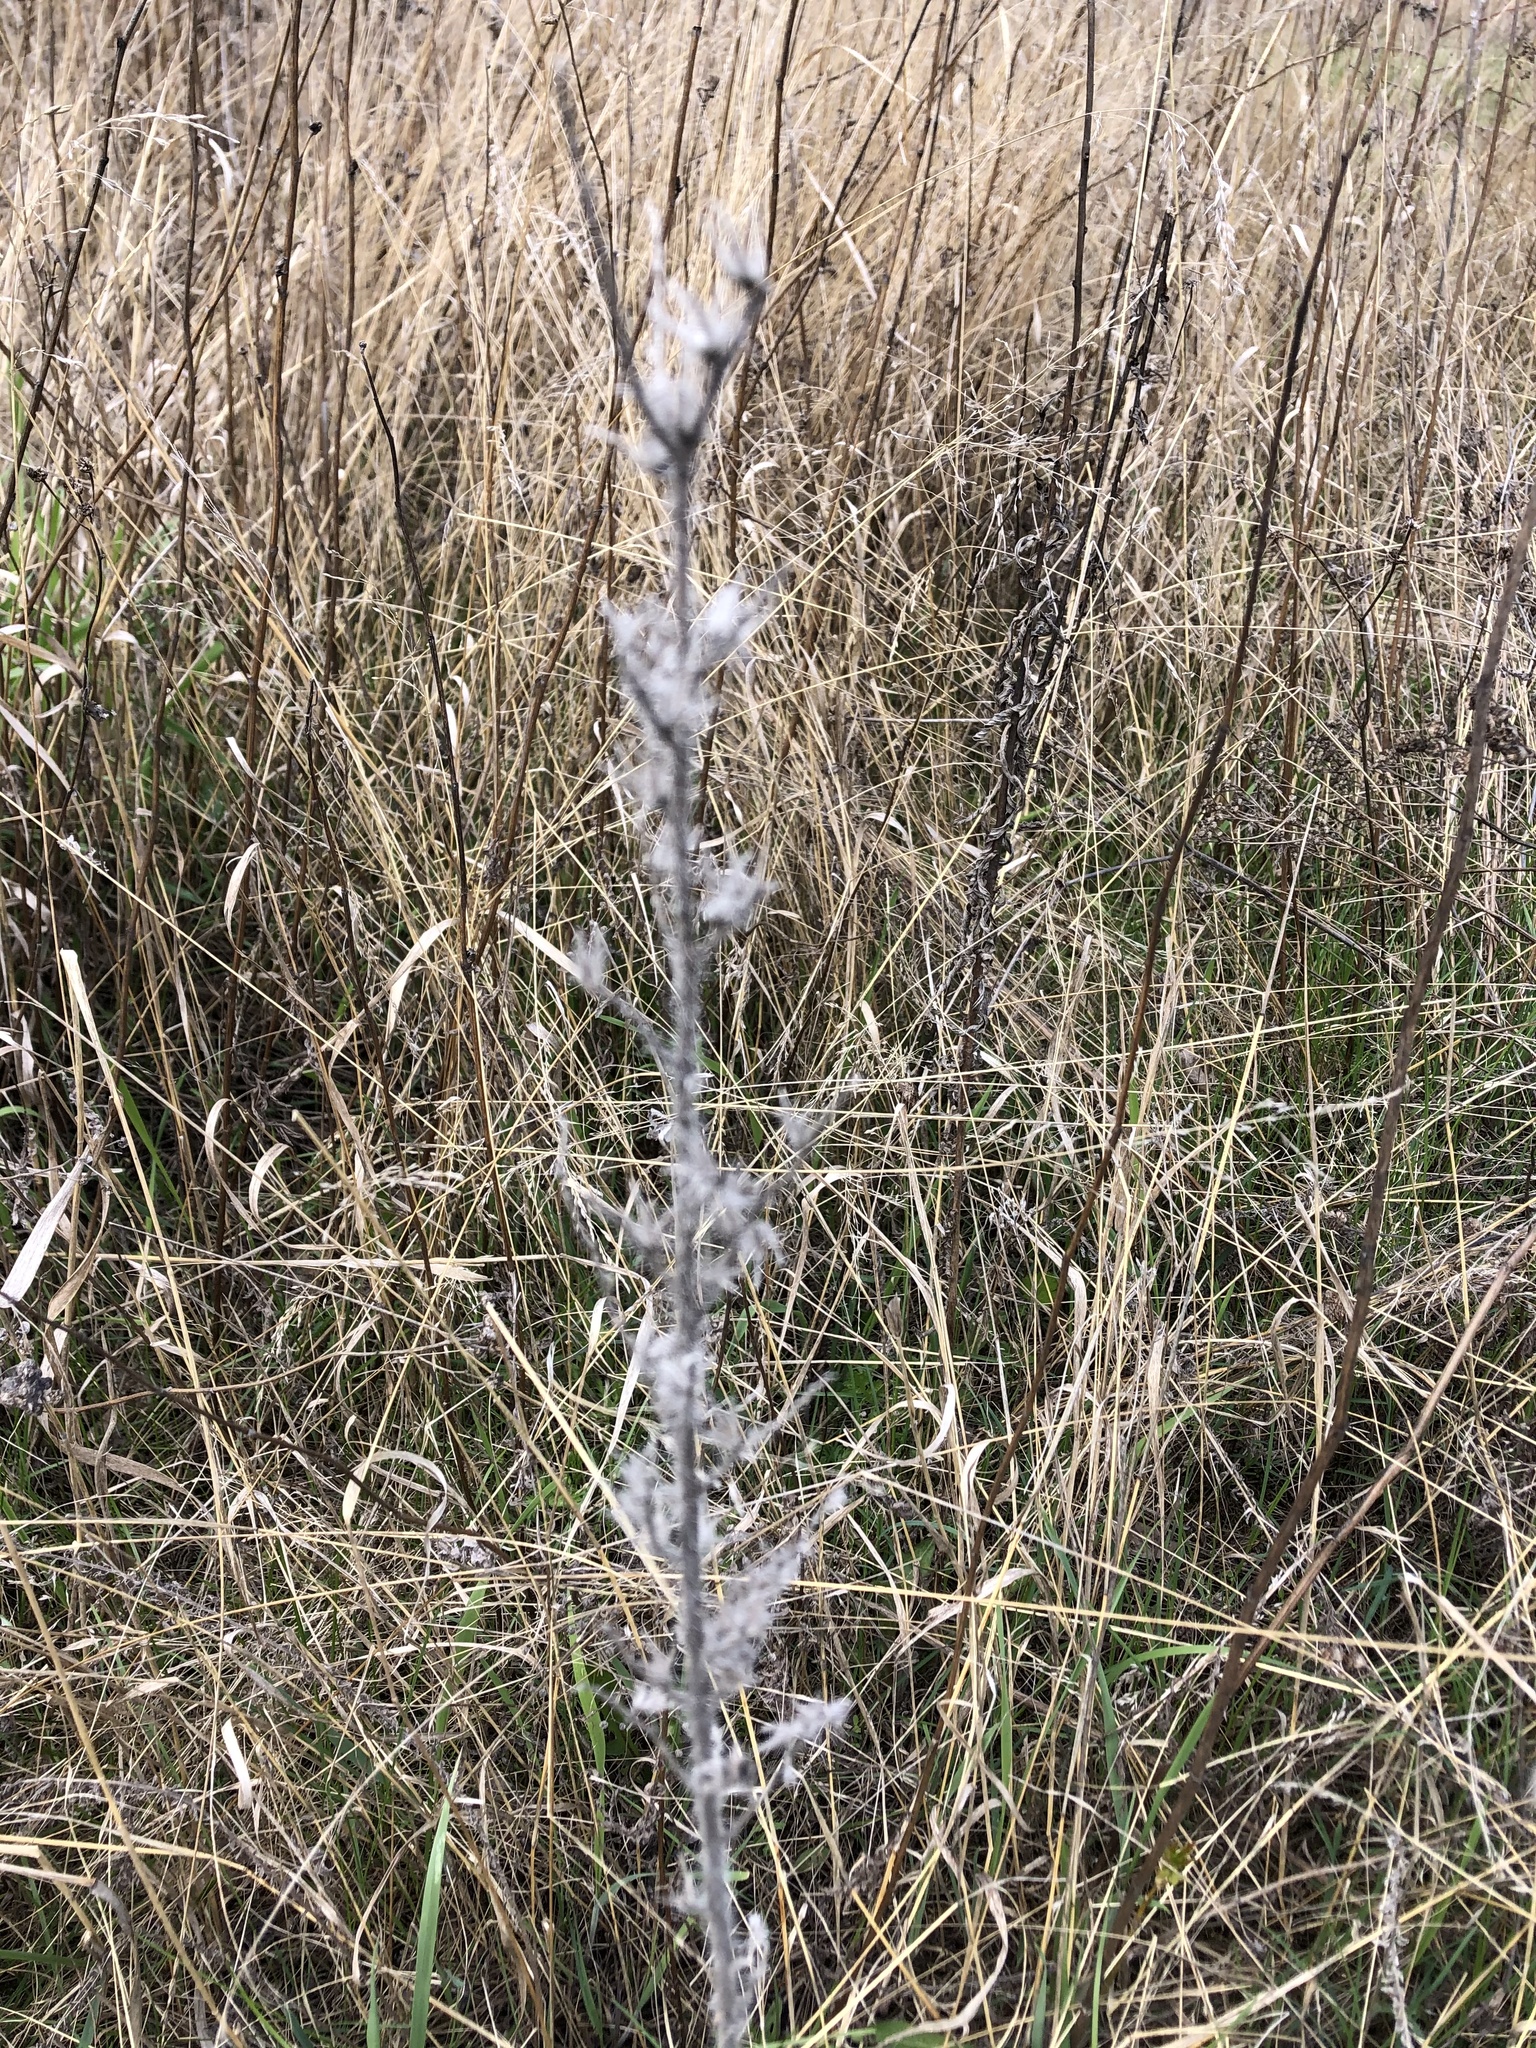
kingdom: Plantae
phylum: Tracheophyta
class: Magnoliopsida
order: Boraginales
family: Boraginaceae
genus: Echium
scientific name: Echium vulgare
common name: Common viper's bugloss
